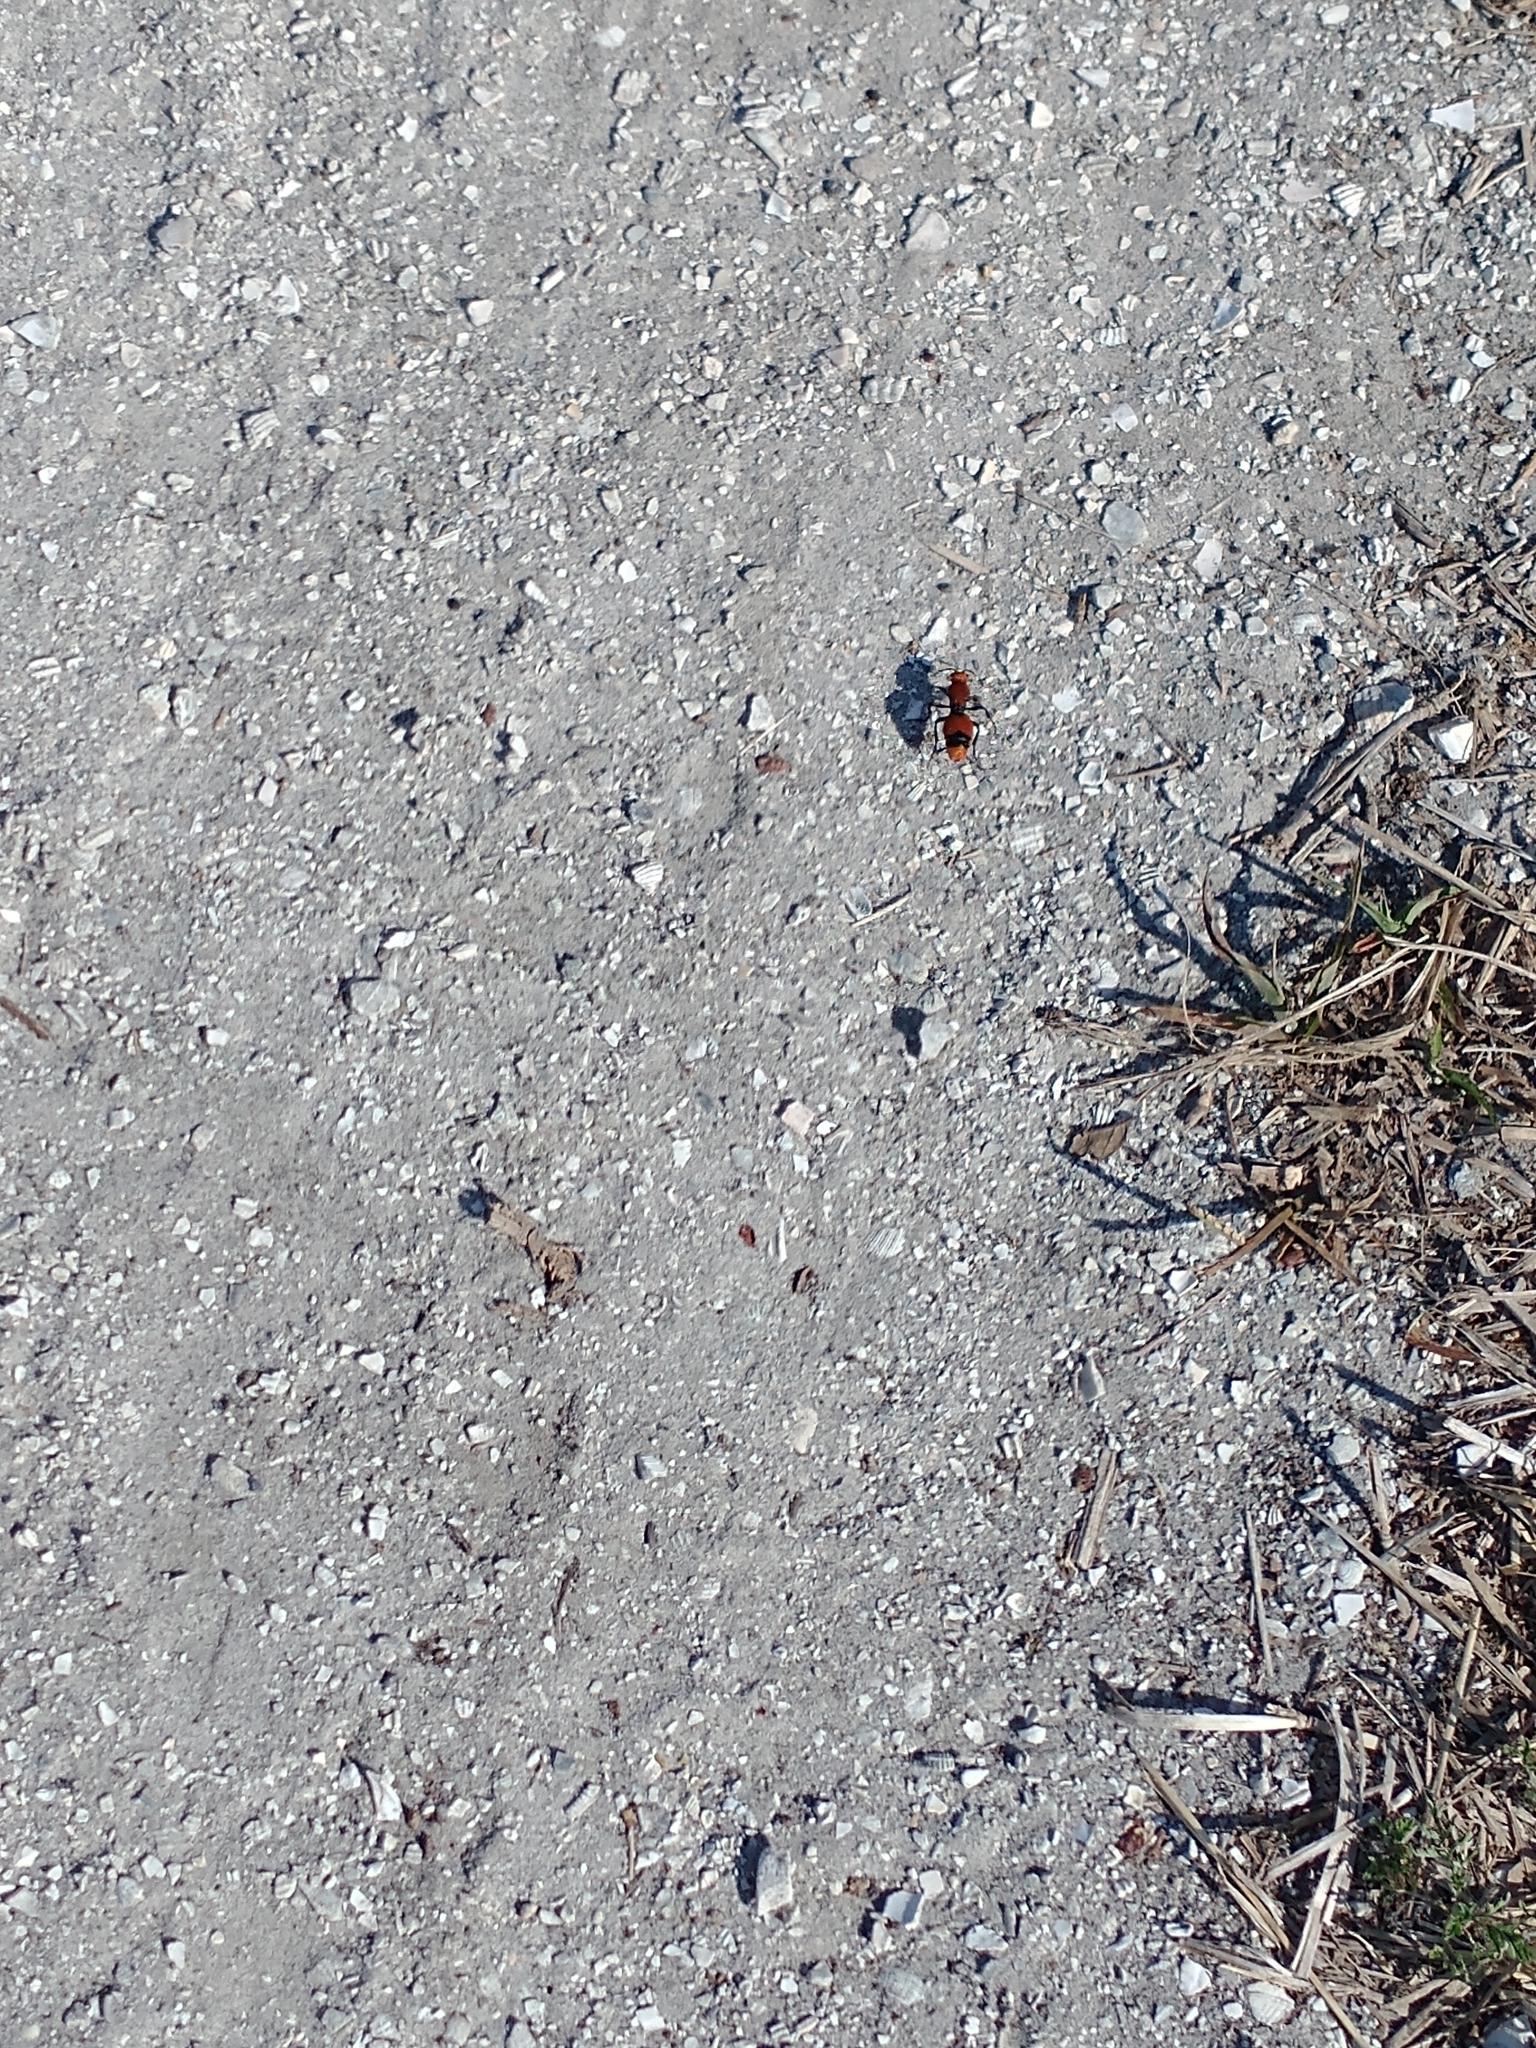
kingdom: Animalia
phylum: Arthropoda
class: Insecta
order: Hymenoptera
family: Mutillidae
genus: Dasymutilla
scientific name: Dasymutilla occidentalis
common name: Common eastern velvet ant
